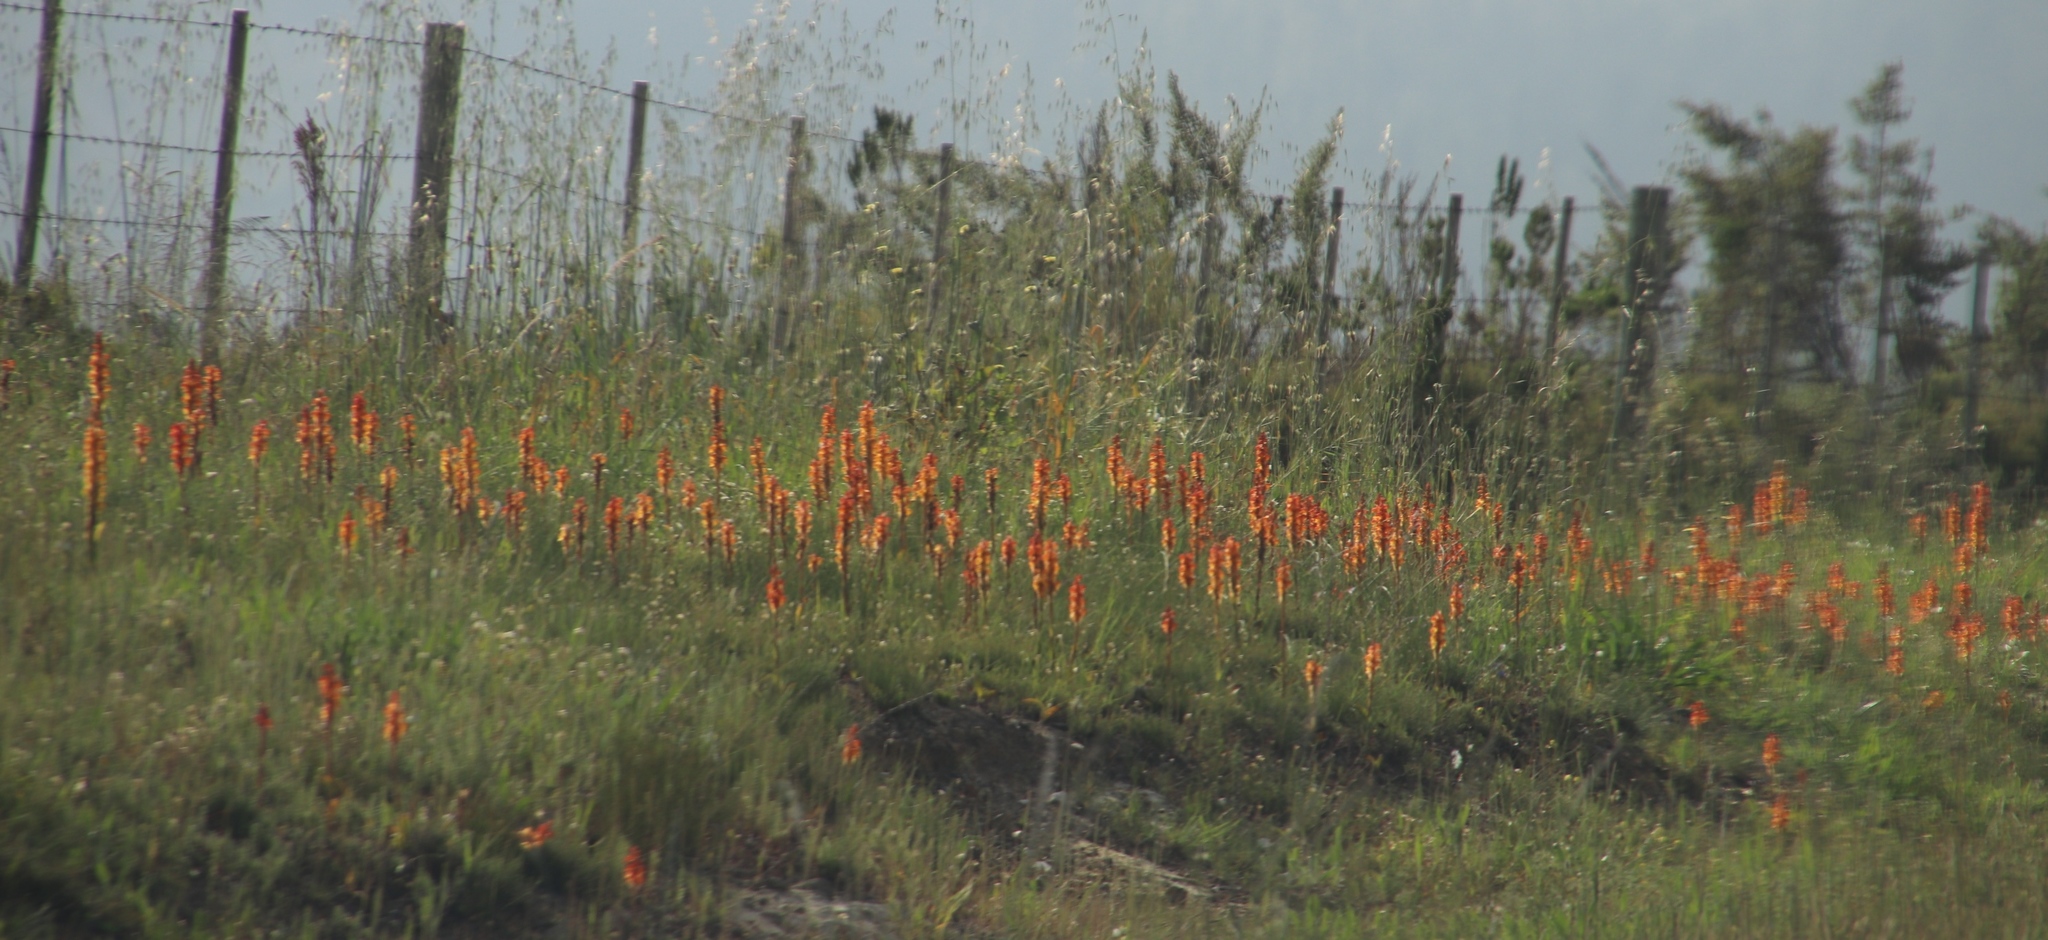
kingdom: Plantae
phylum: Tracheophyta
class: Liliopsida
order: Asparagales
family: Orchidaceae
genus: Satyrium
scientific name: Satyrium coriifolium
